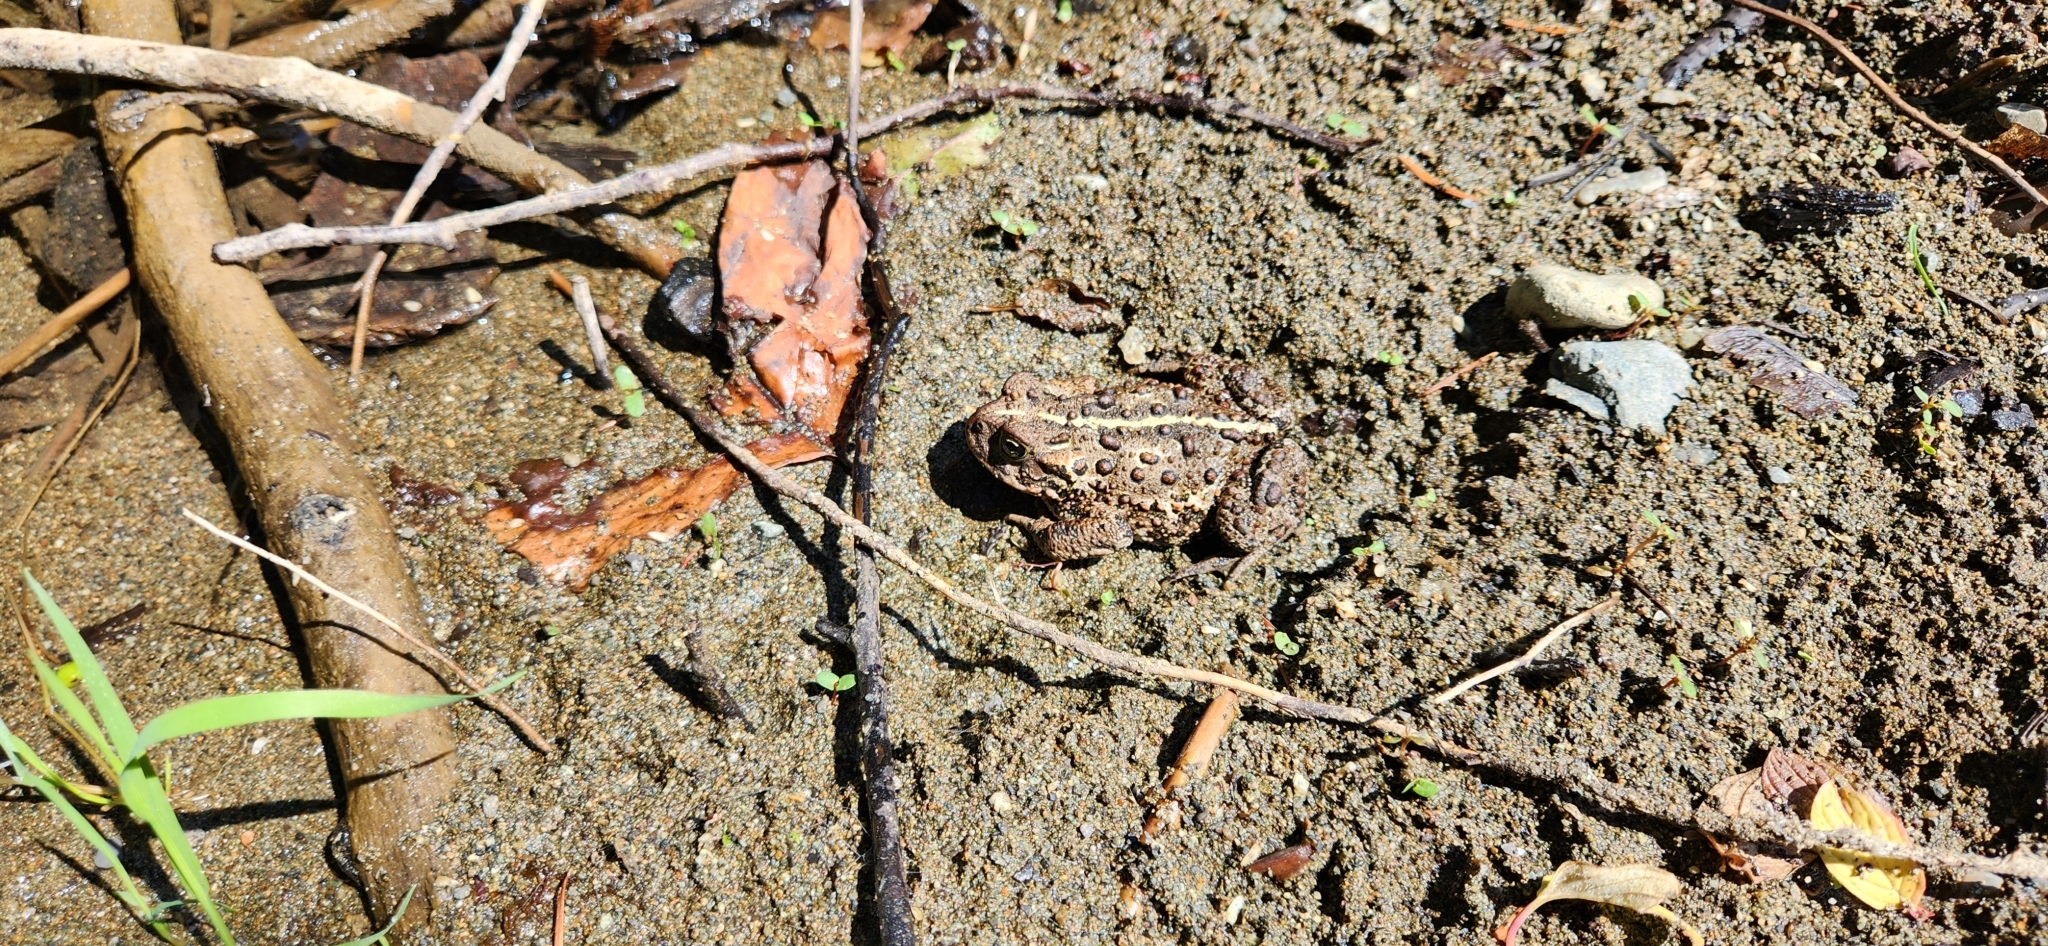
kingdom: Animalia
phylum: Chordata
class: Amphibia
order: Anura
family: Bufonidae
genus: Anaxyrus
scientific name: Anaxyrus boreas
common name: Western toad
